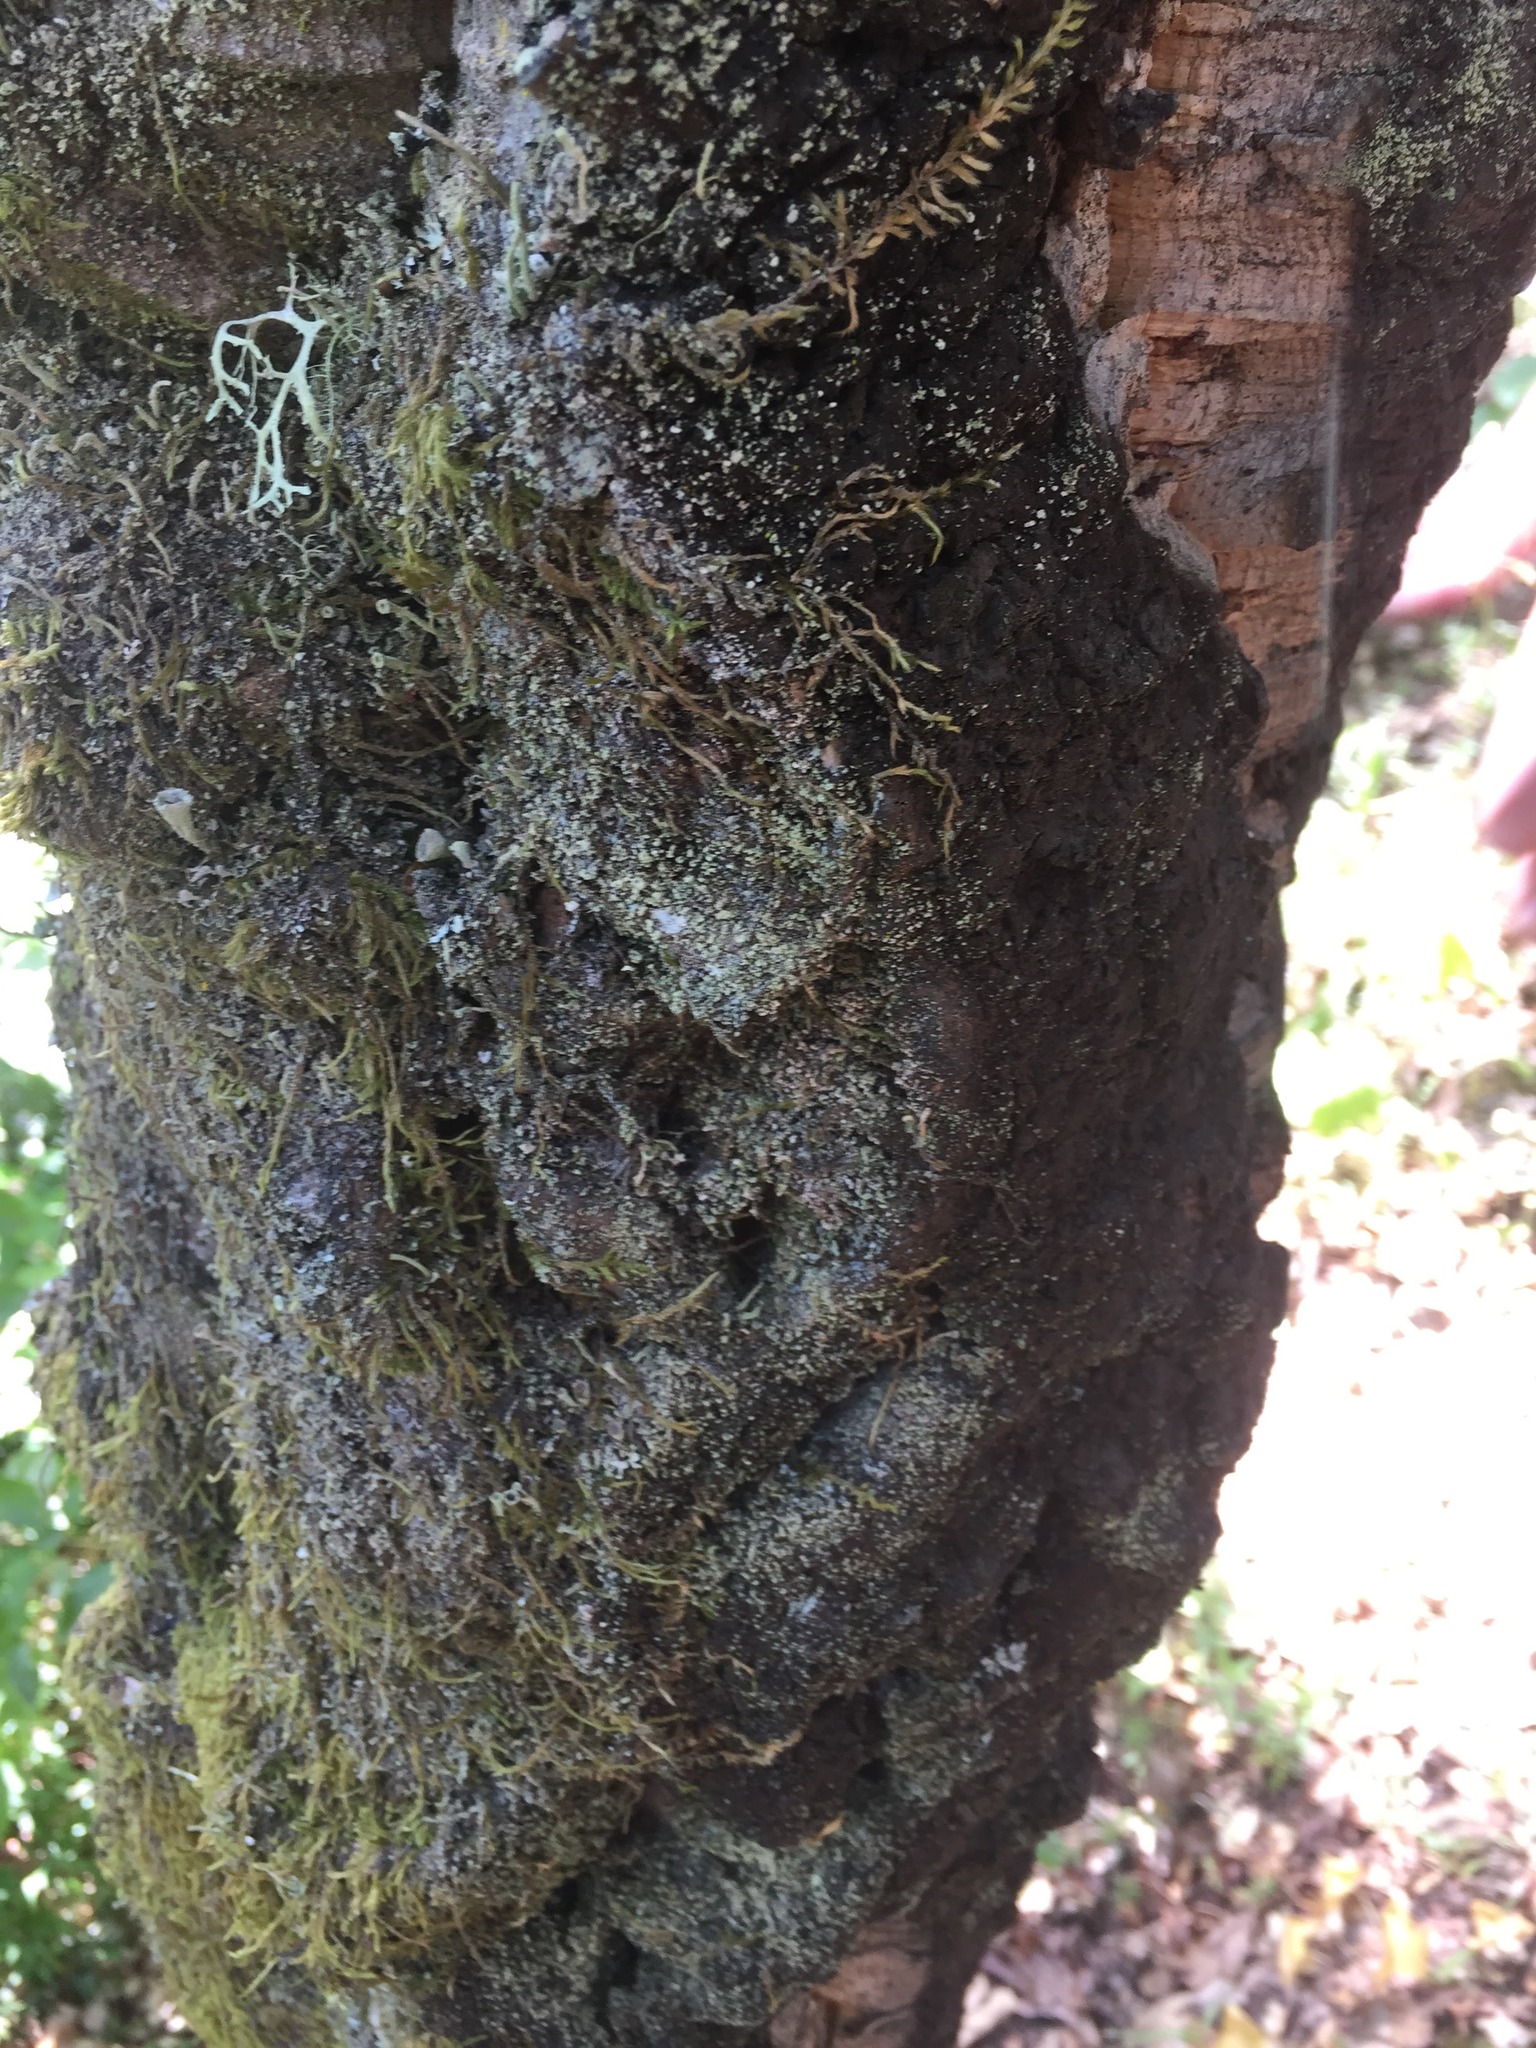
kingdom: Plantae
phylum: Tracheophyta
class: Magnoliopsida
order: Fagales
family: Fagaceae
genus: Quercus
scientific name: Quercus suber
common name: Cork oak
